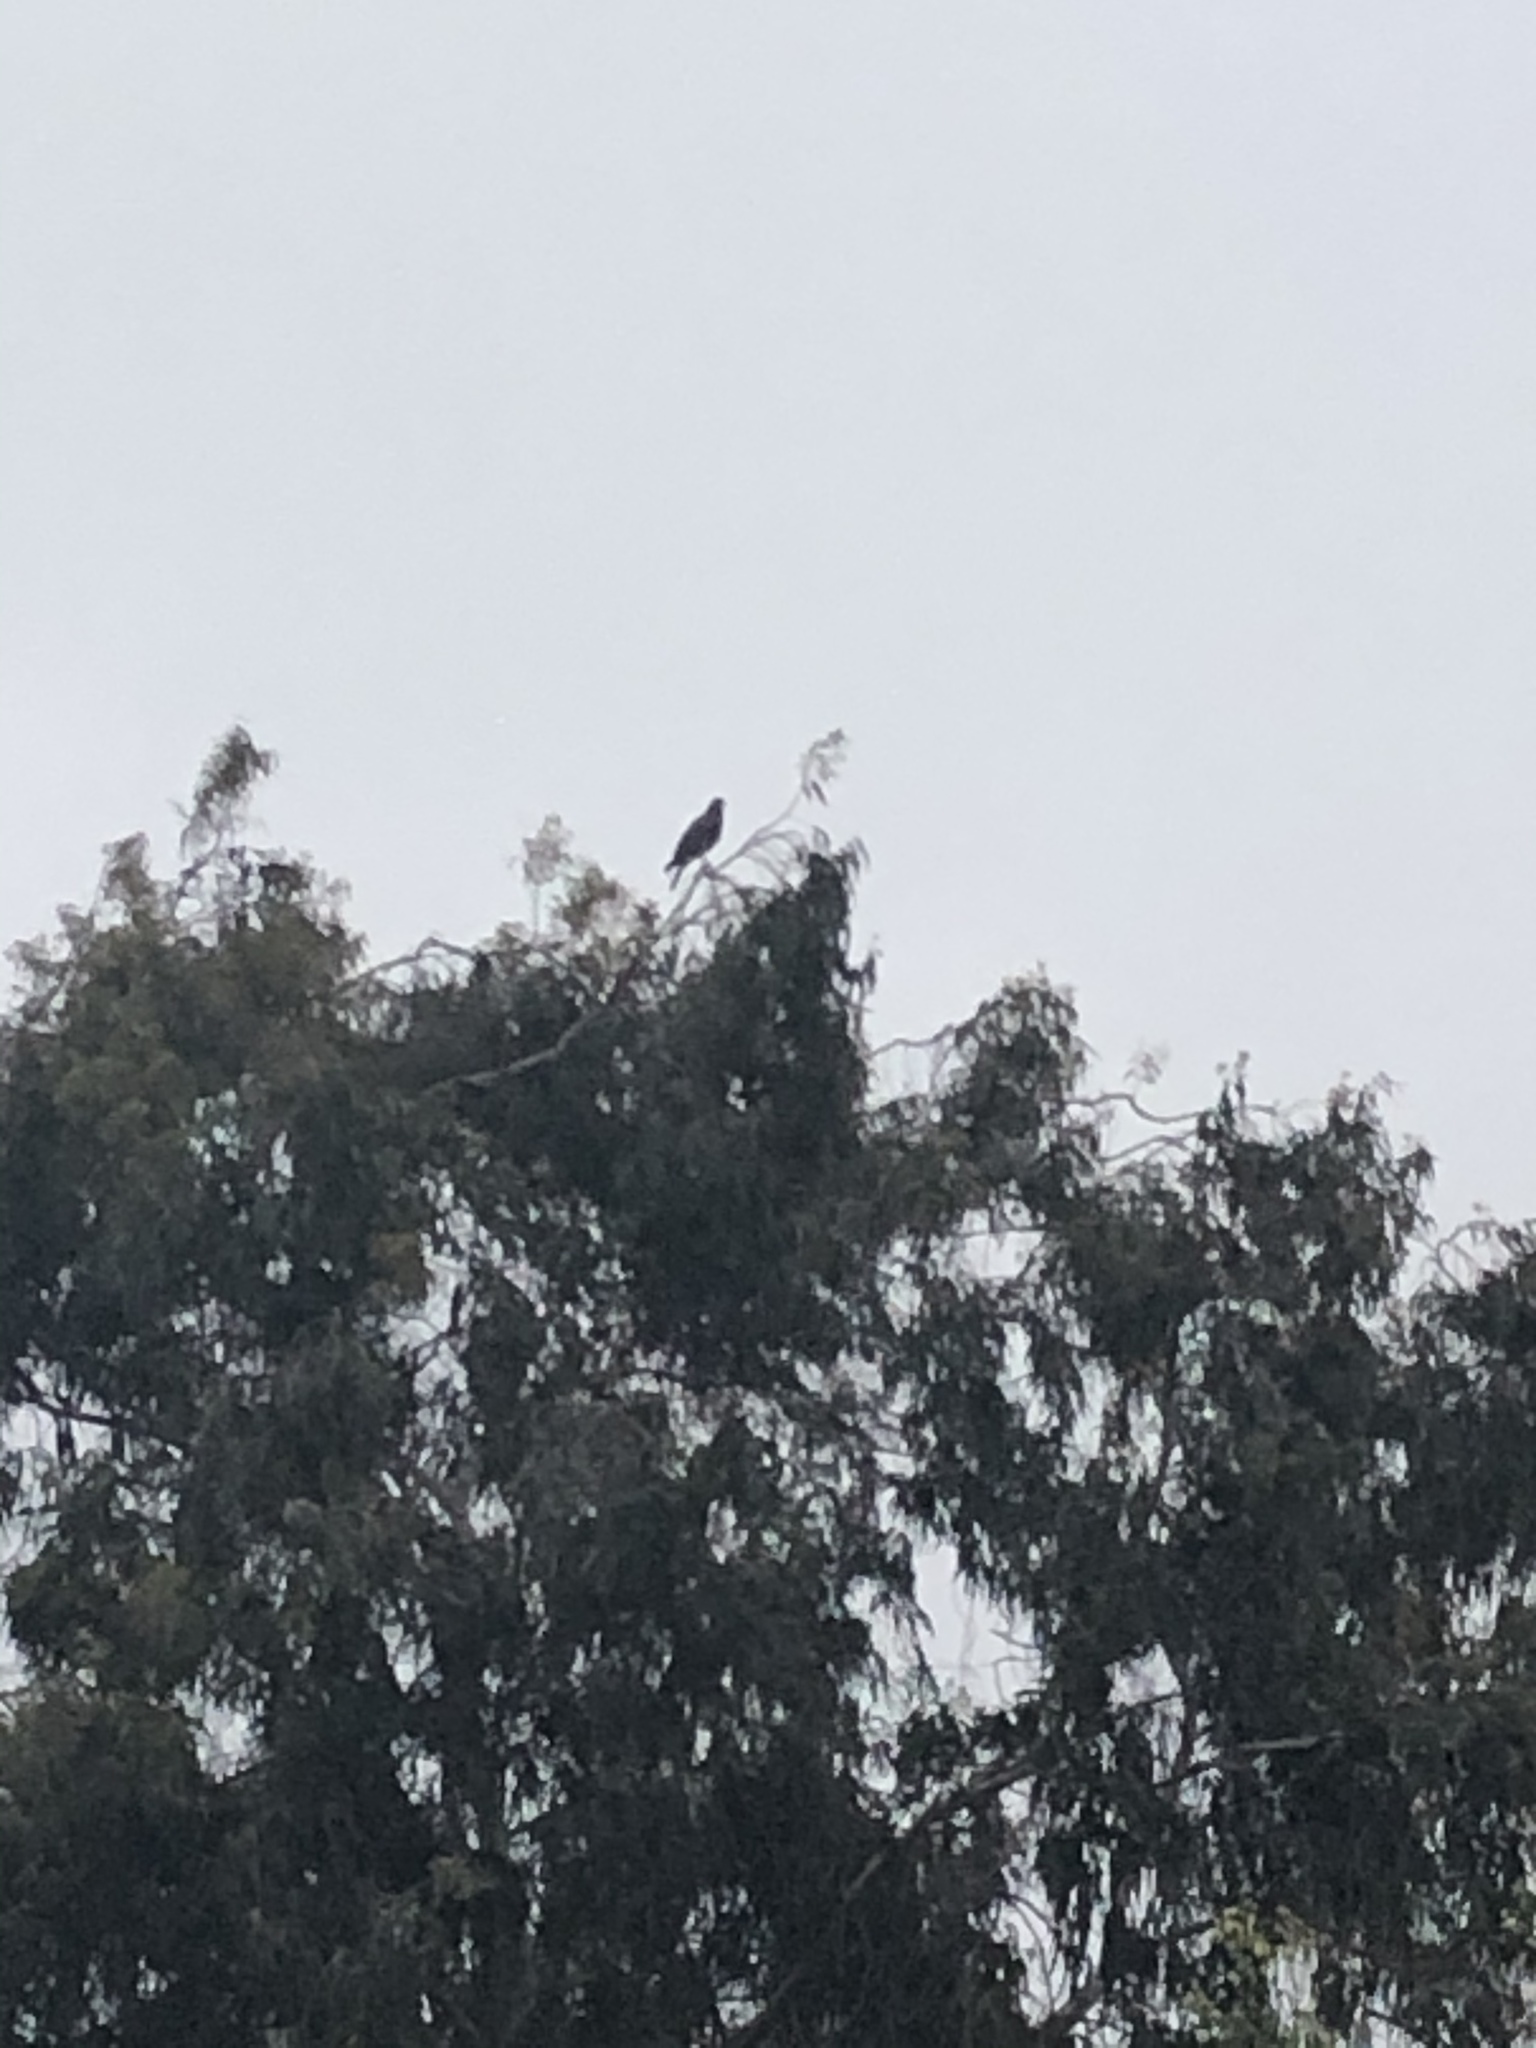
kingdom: Animalia
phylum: Chordata
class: Aves
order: Accipitriformes
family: Accipitridae
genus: Parabuteo
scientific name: Parabuteo unicinctus
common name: Harris's hawk
